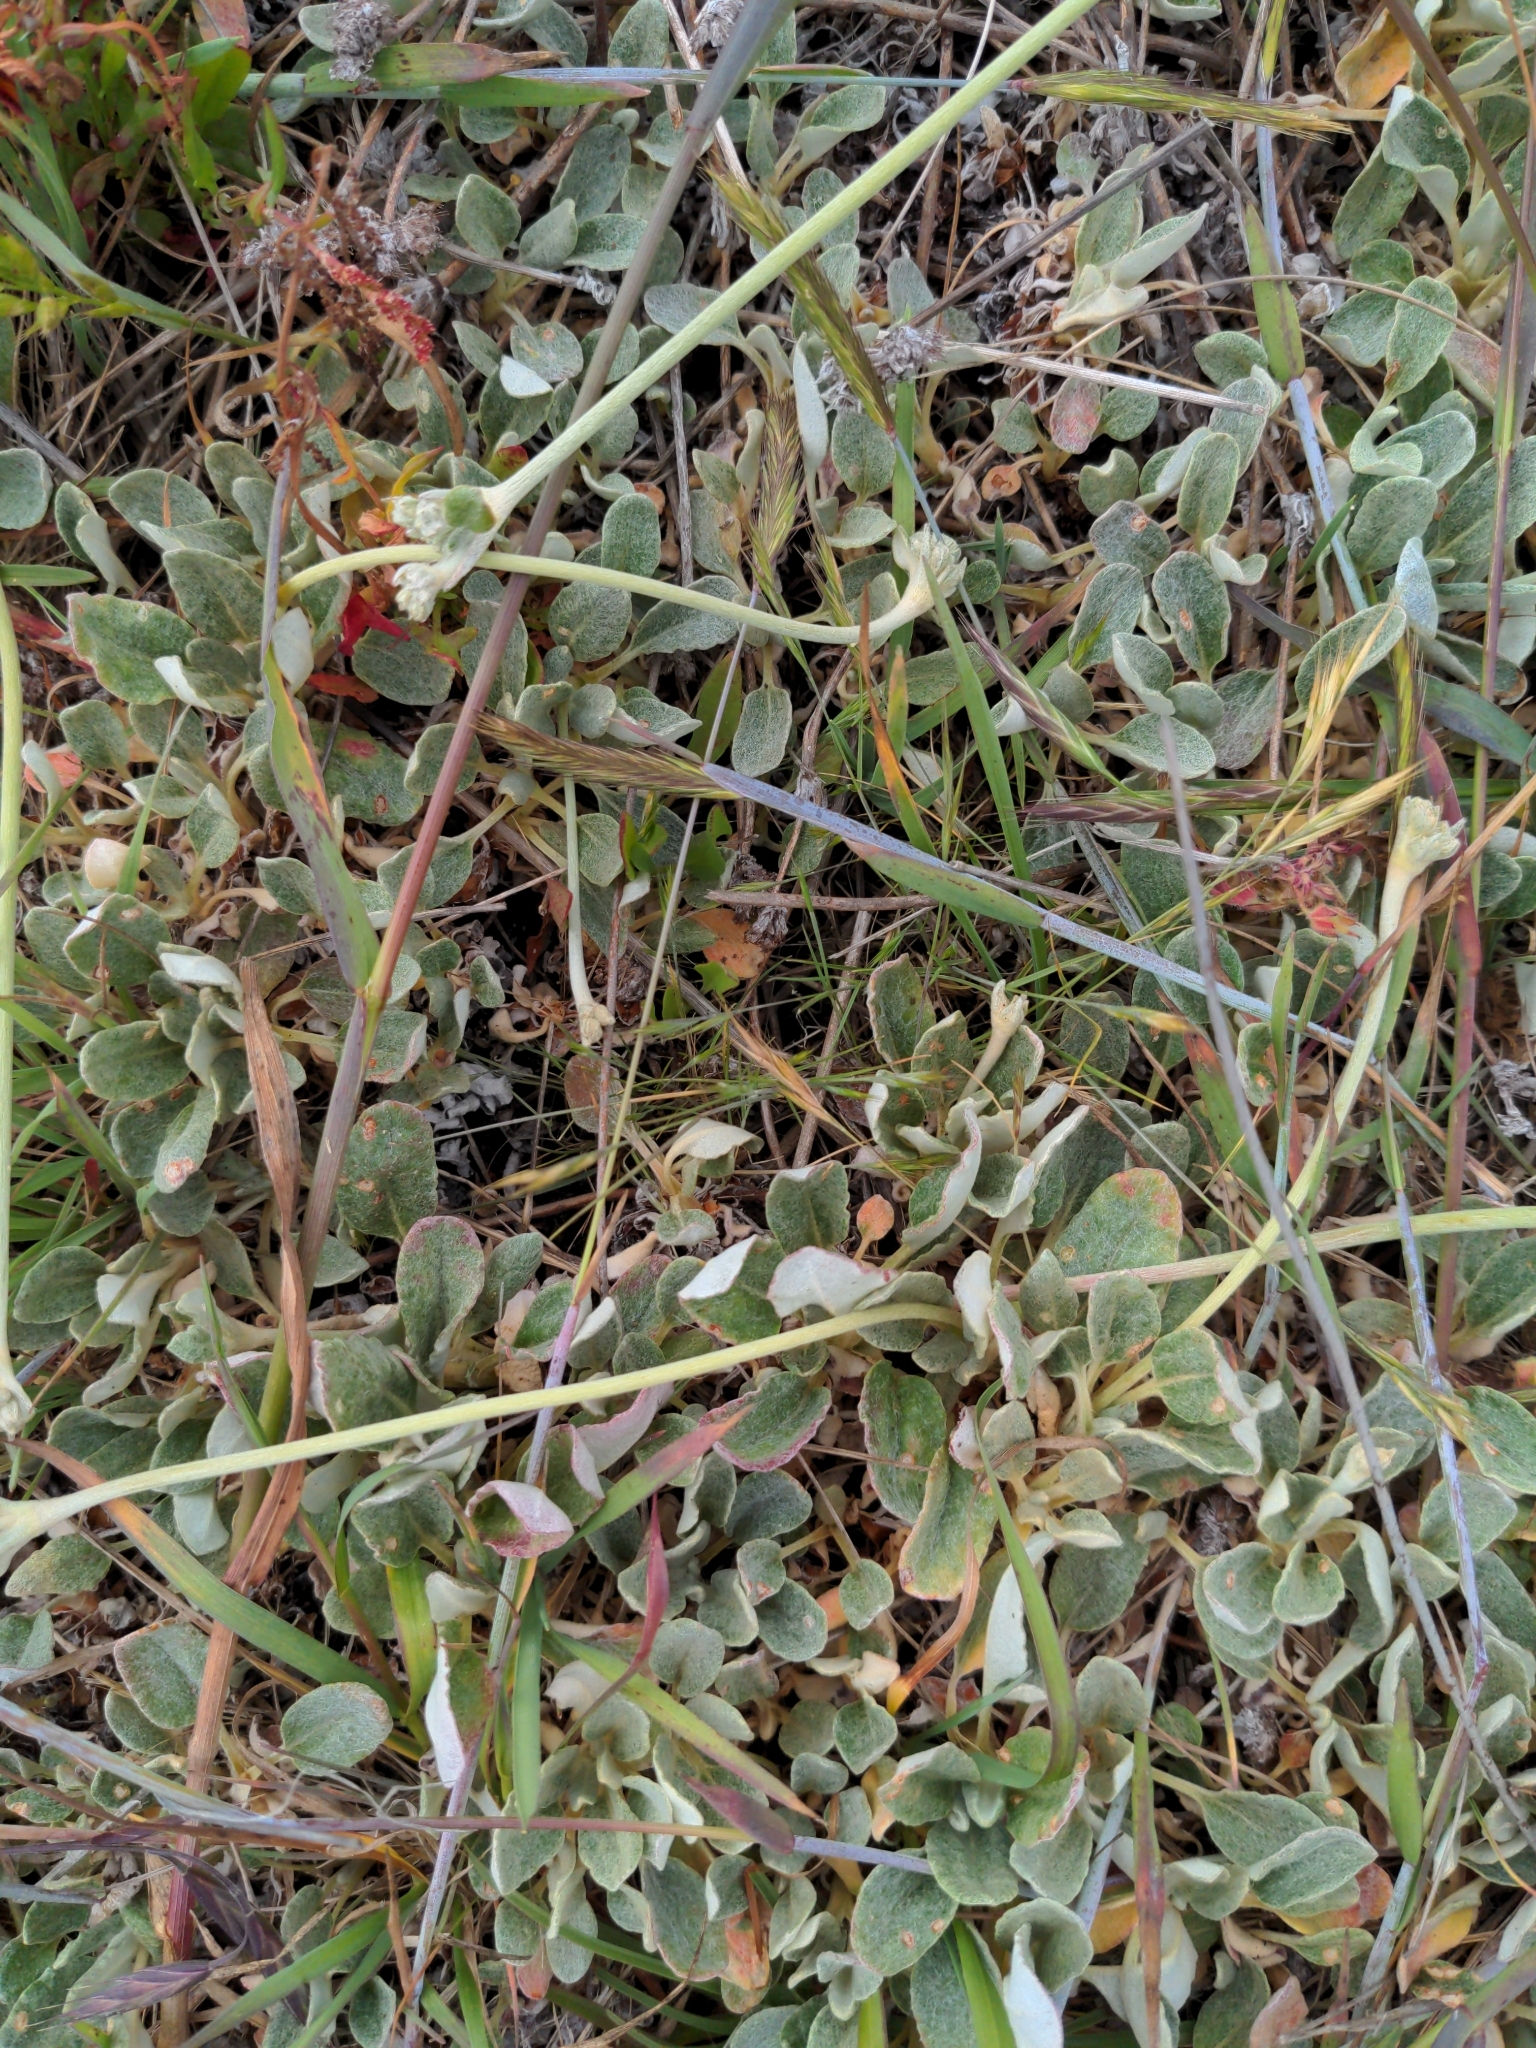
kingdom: Plantae
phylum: Tracheophyta
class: Magnoliopsida
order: Caryophyllales
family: Polygonaceae
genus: Eriogonum
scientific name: Eriogonum latifolium
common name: Seaside wild buckwheat
